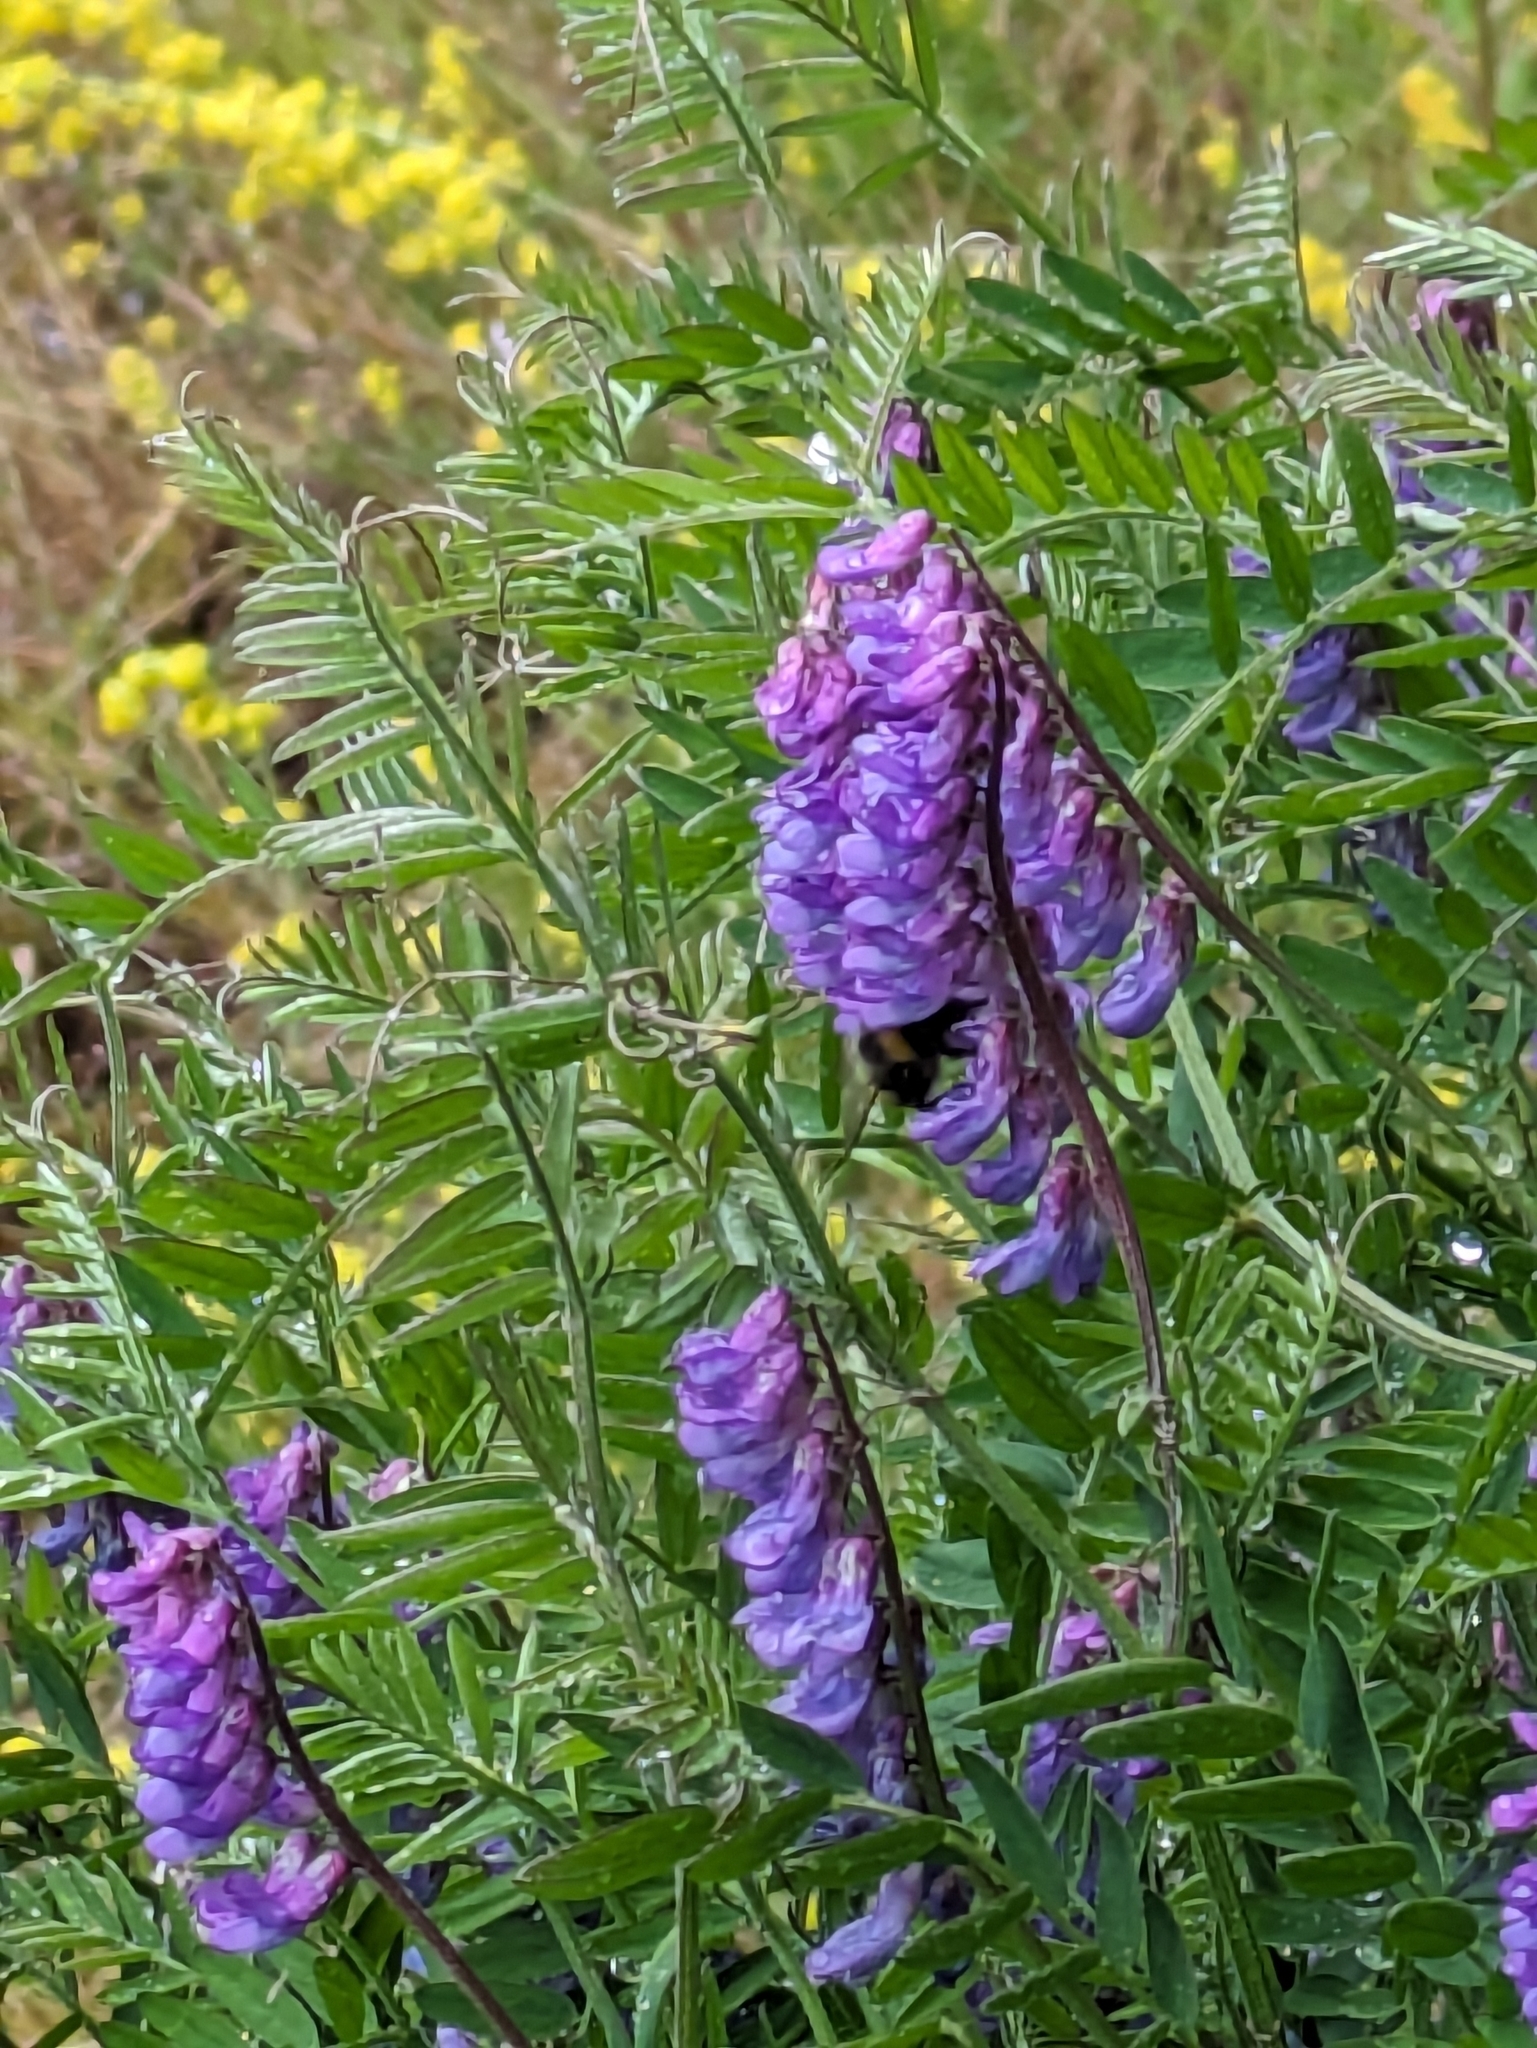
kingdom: Plantae
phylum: Tracheophyta
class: Magnoliopsida
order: Fabales
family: Fabaceae
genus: Vicia
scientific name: Vicia cracca
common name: Bird vetch
